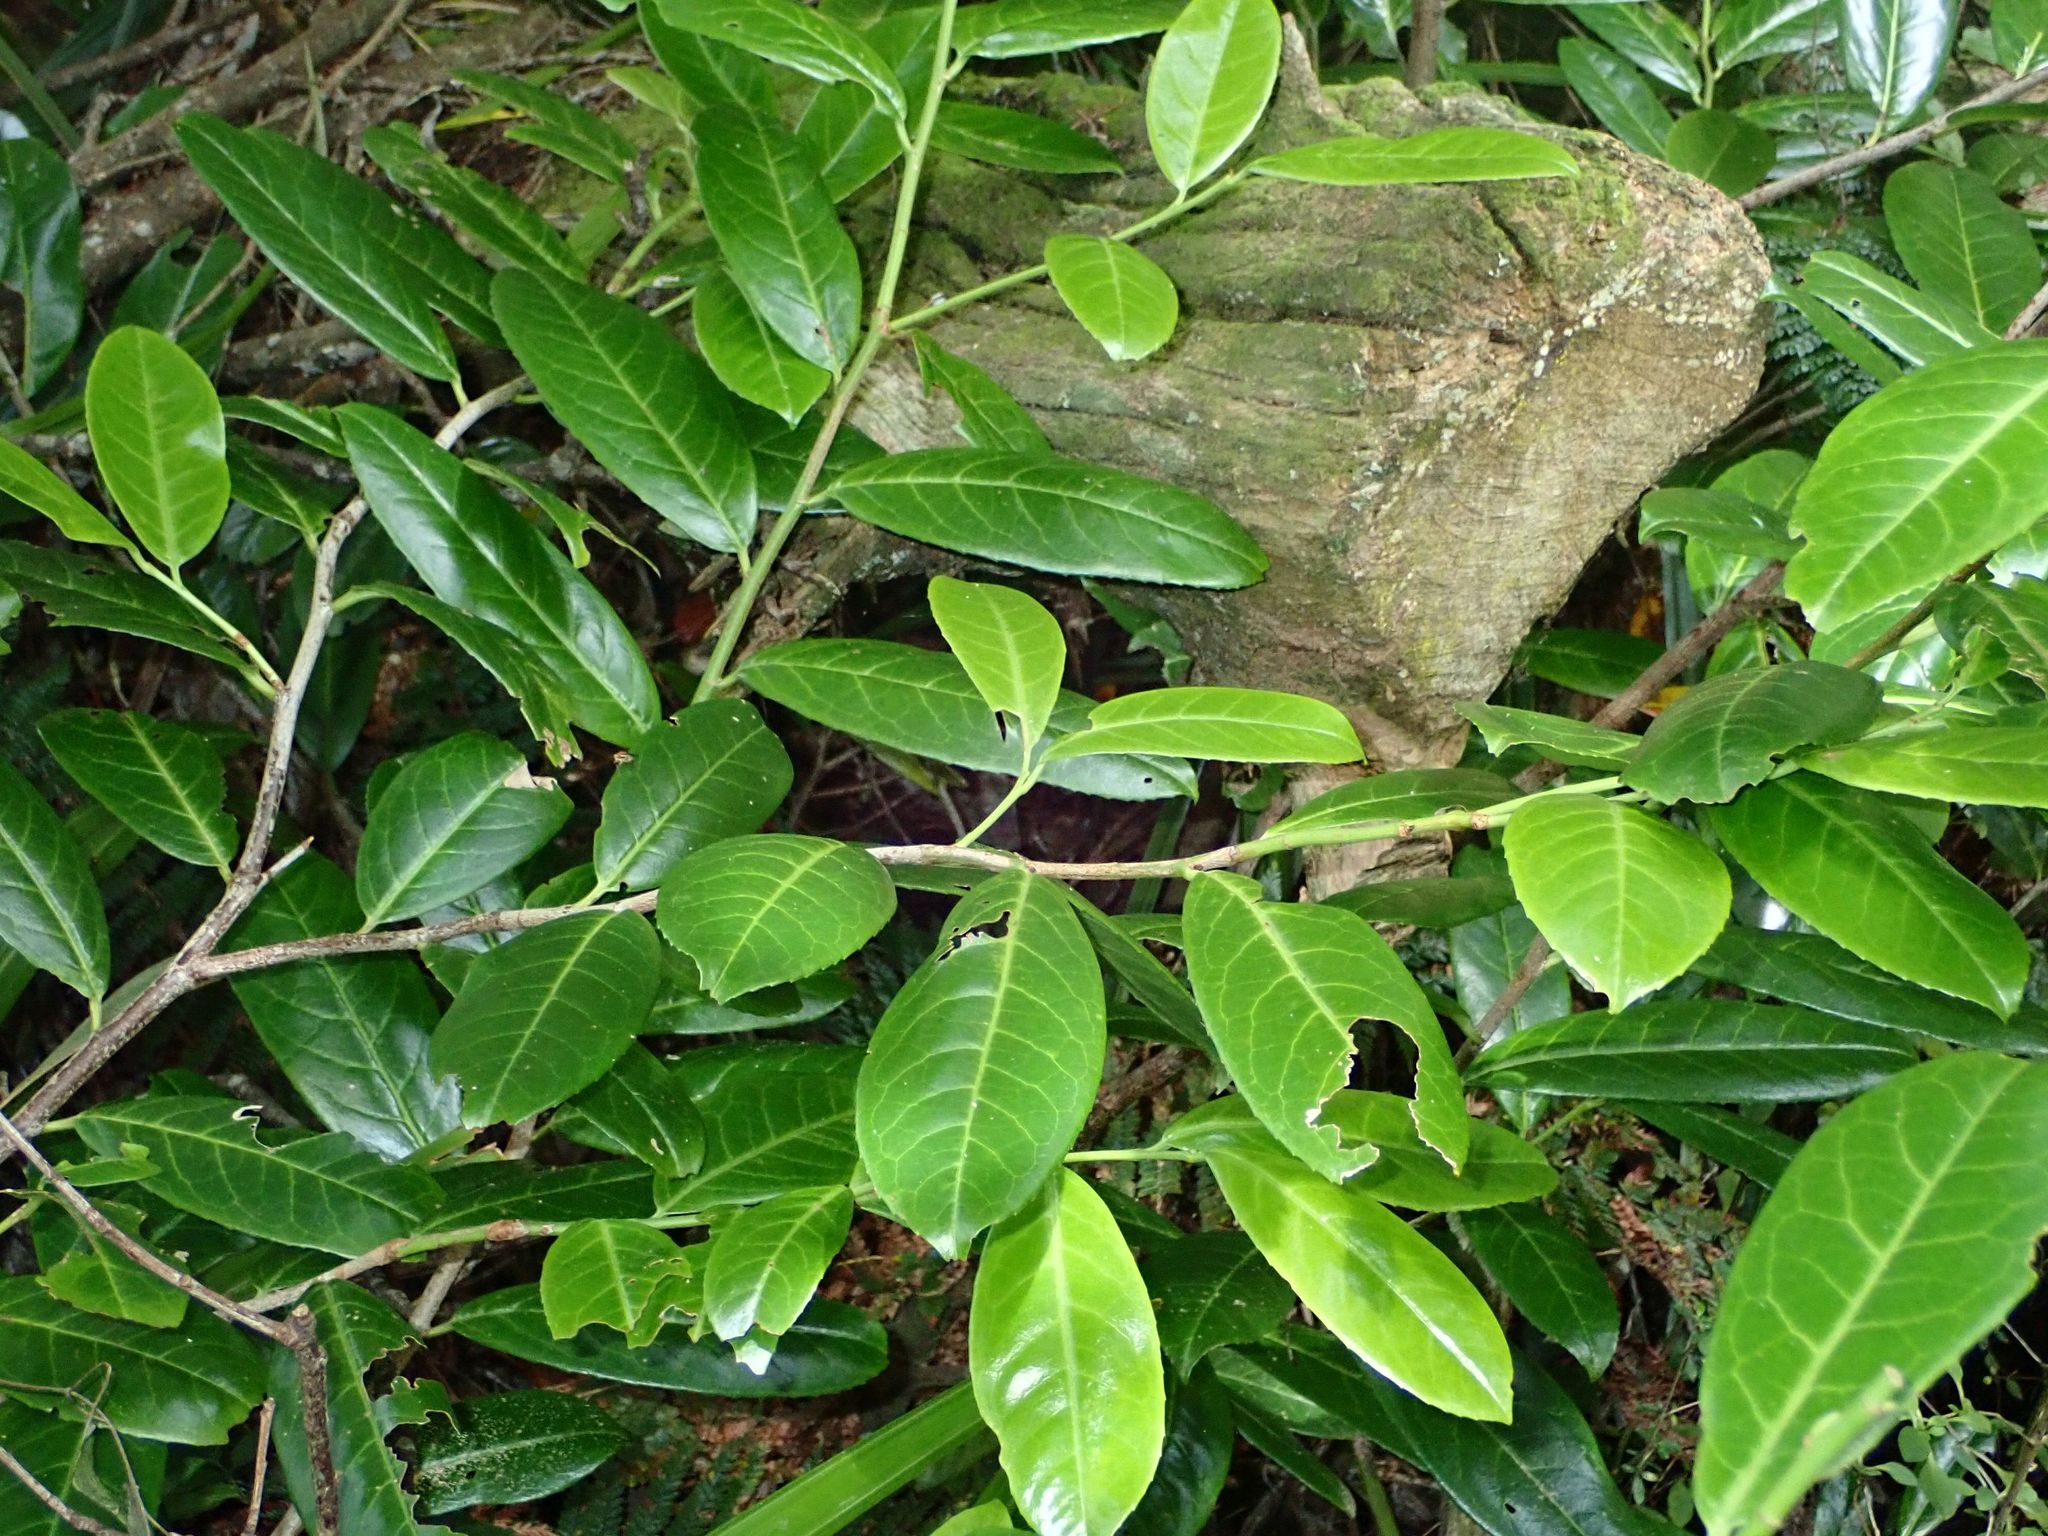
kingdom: Plantae
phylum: Tracheophyta
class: Magnoliopsida
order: Rosales
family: Rosaceae
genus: Prunus
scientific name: Prunus laurocerasus
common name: Cherry laurel
